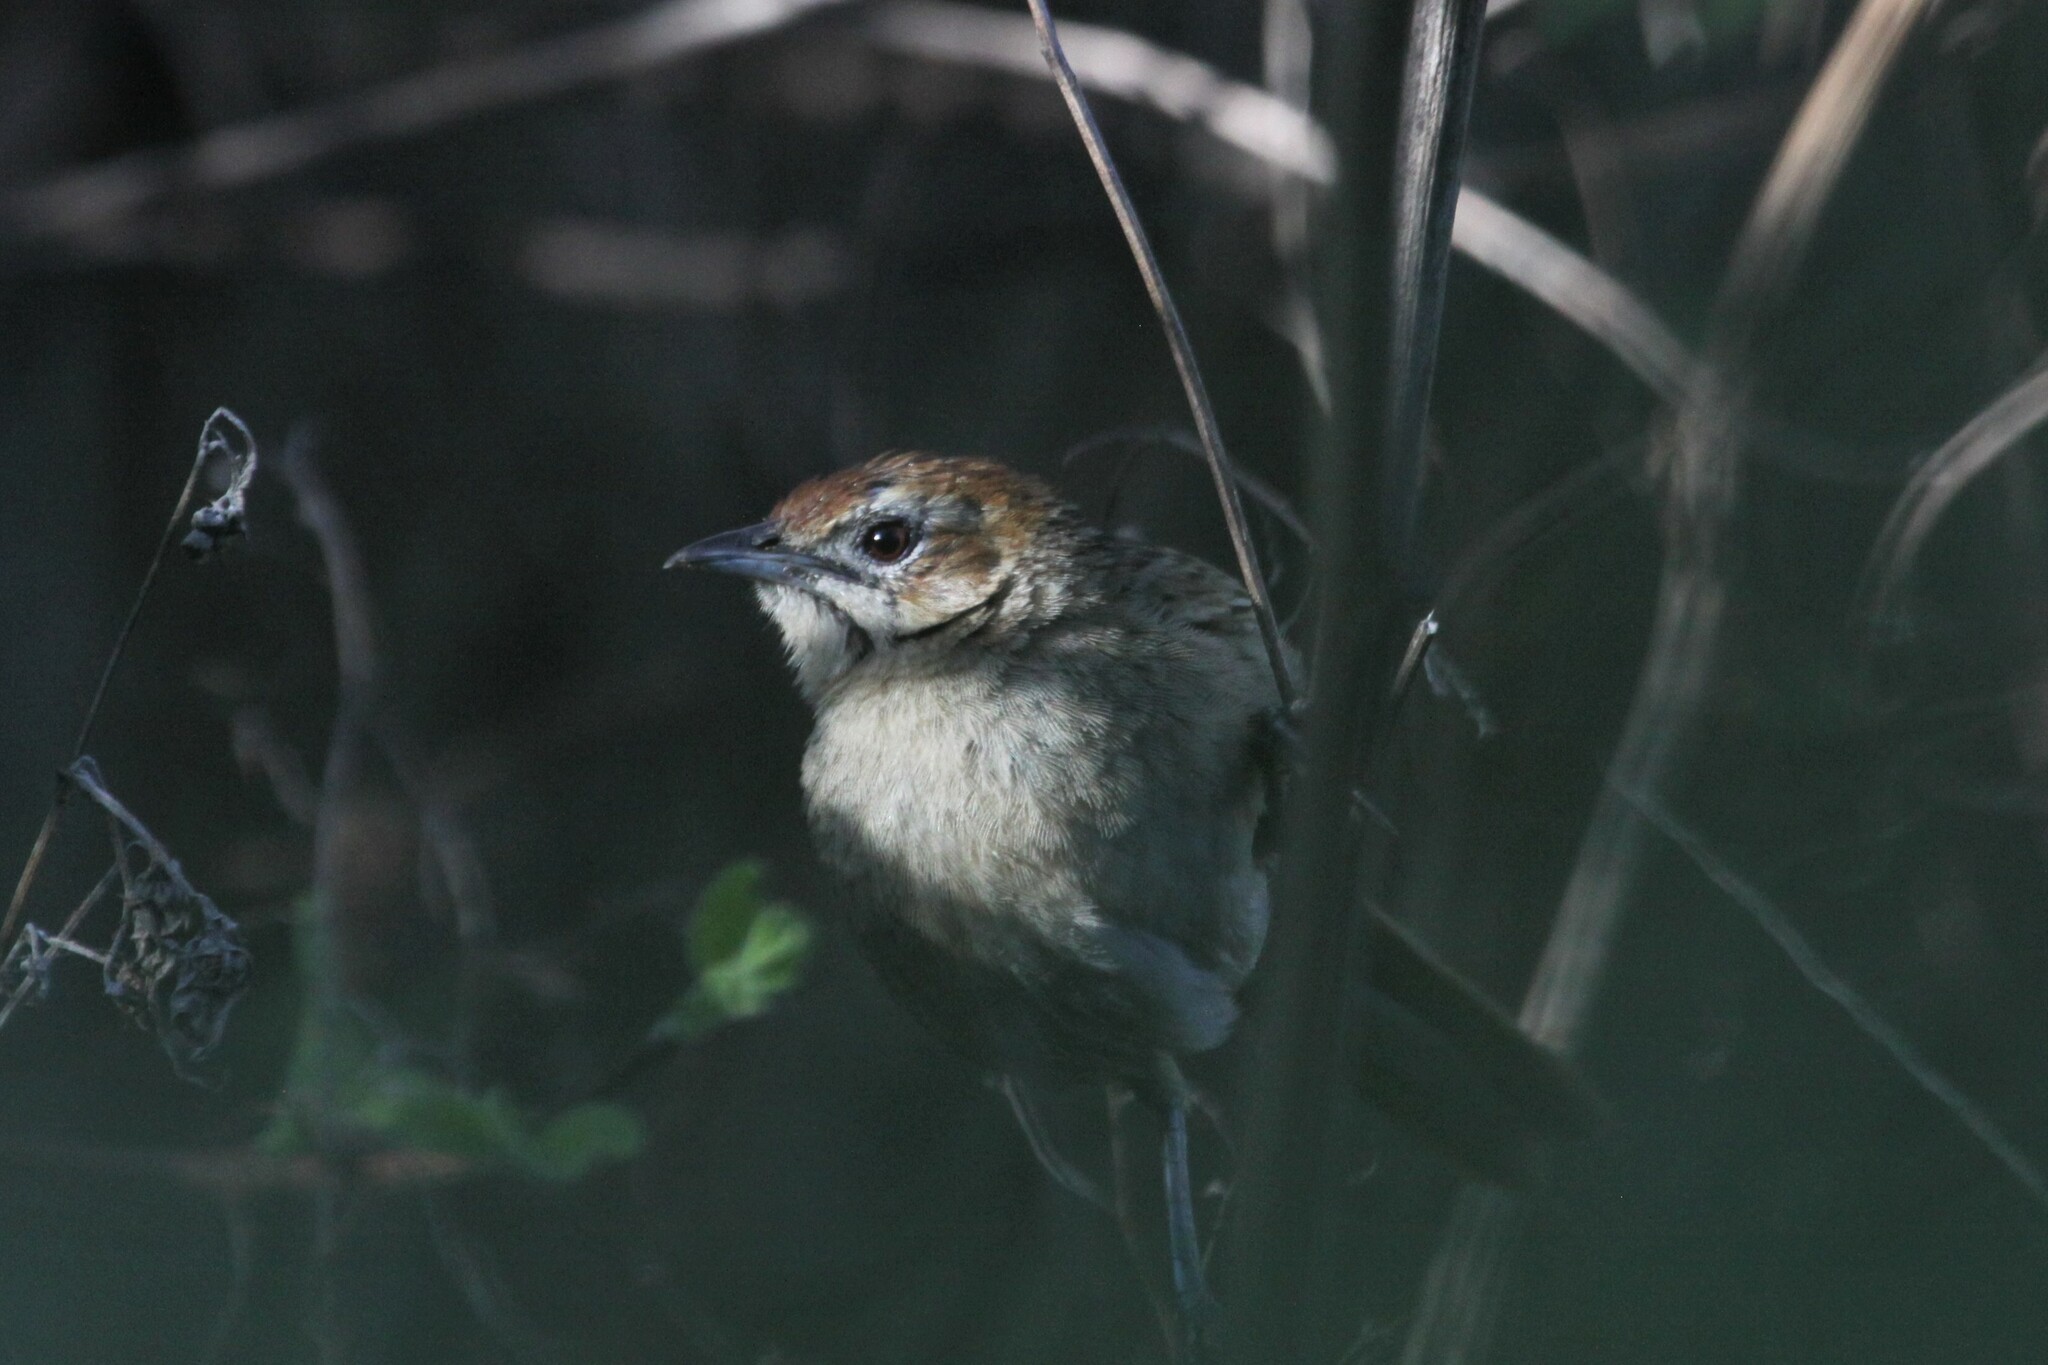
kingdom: Animalia
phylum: Chordata
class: Aves
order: Passeriformes
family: Macrosphenidae
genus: Sphenoeacus
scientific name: Sphenoeacus afer
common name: Cape grassbird
